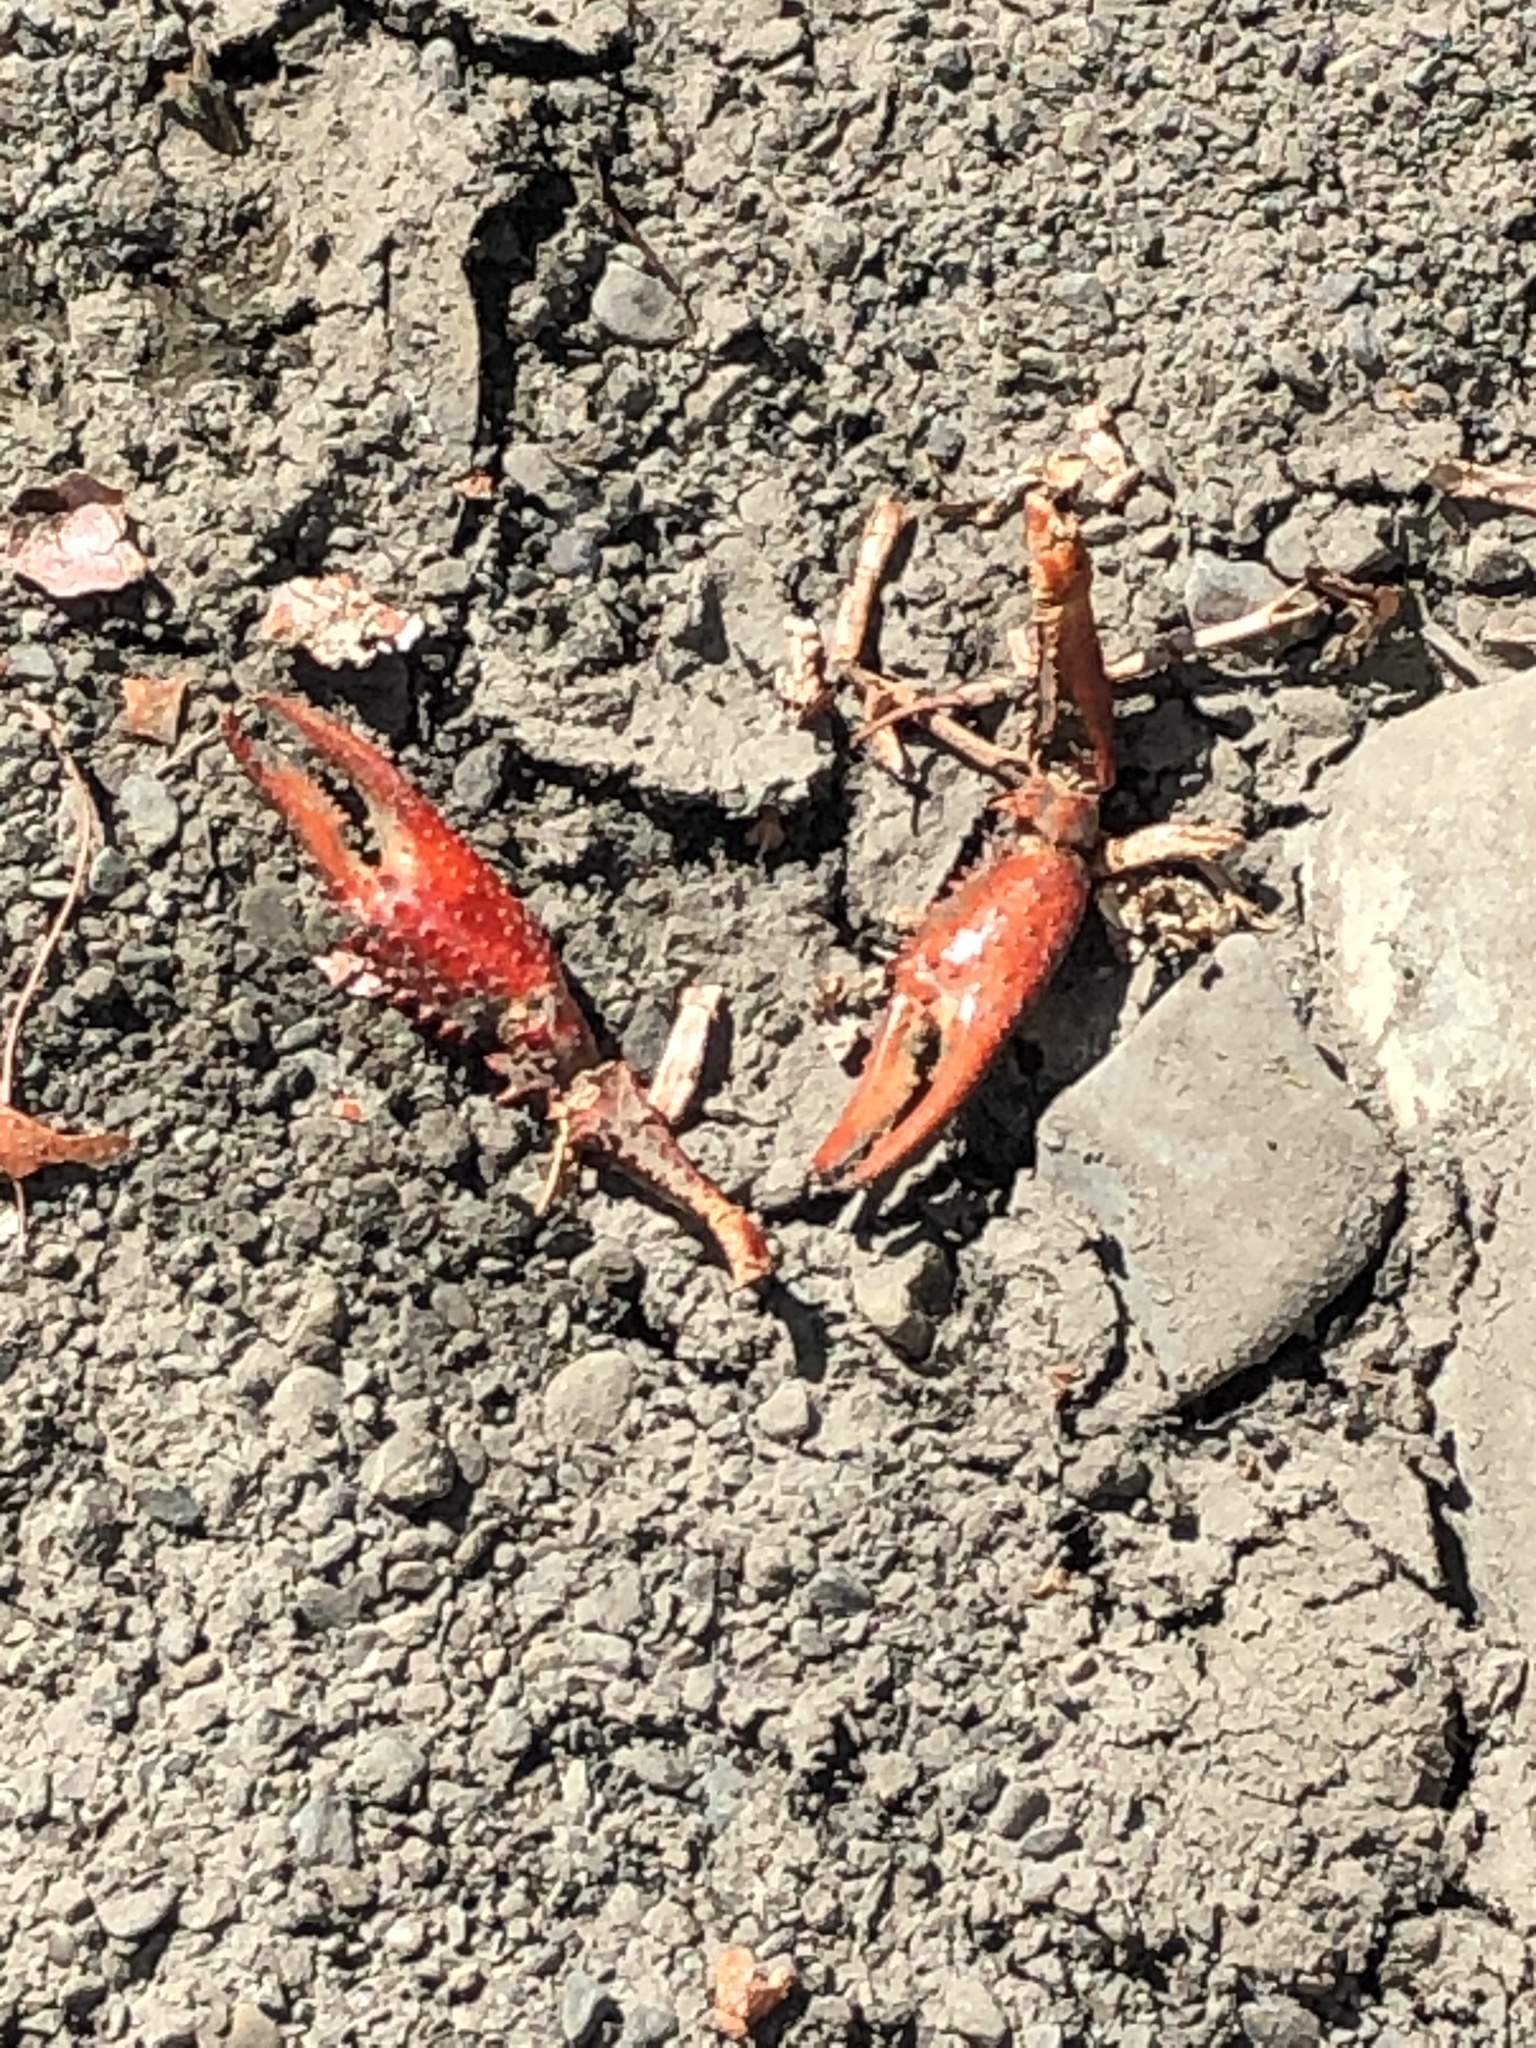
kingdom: Animalia
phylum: Arthropoda
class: Malacostraca
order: Decapoda
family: Cambaridae
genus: Procambarus
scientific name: Procambarus clarkii
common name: Red swamp crayfish
